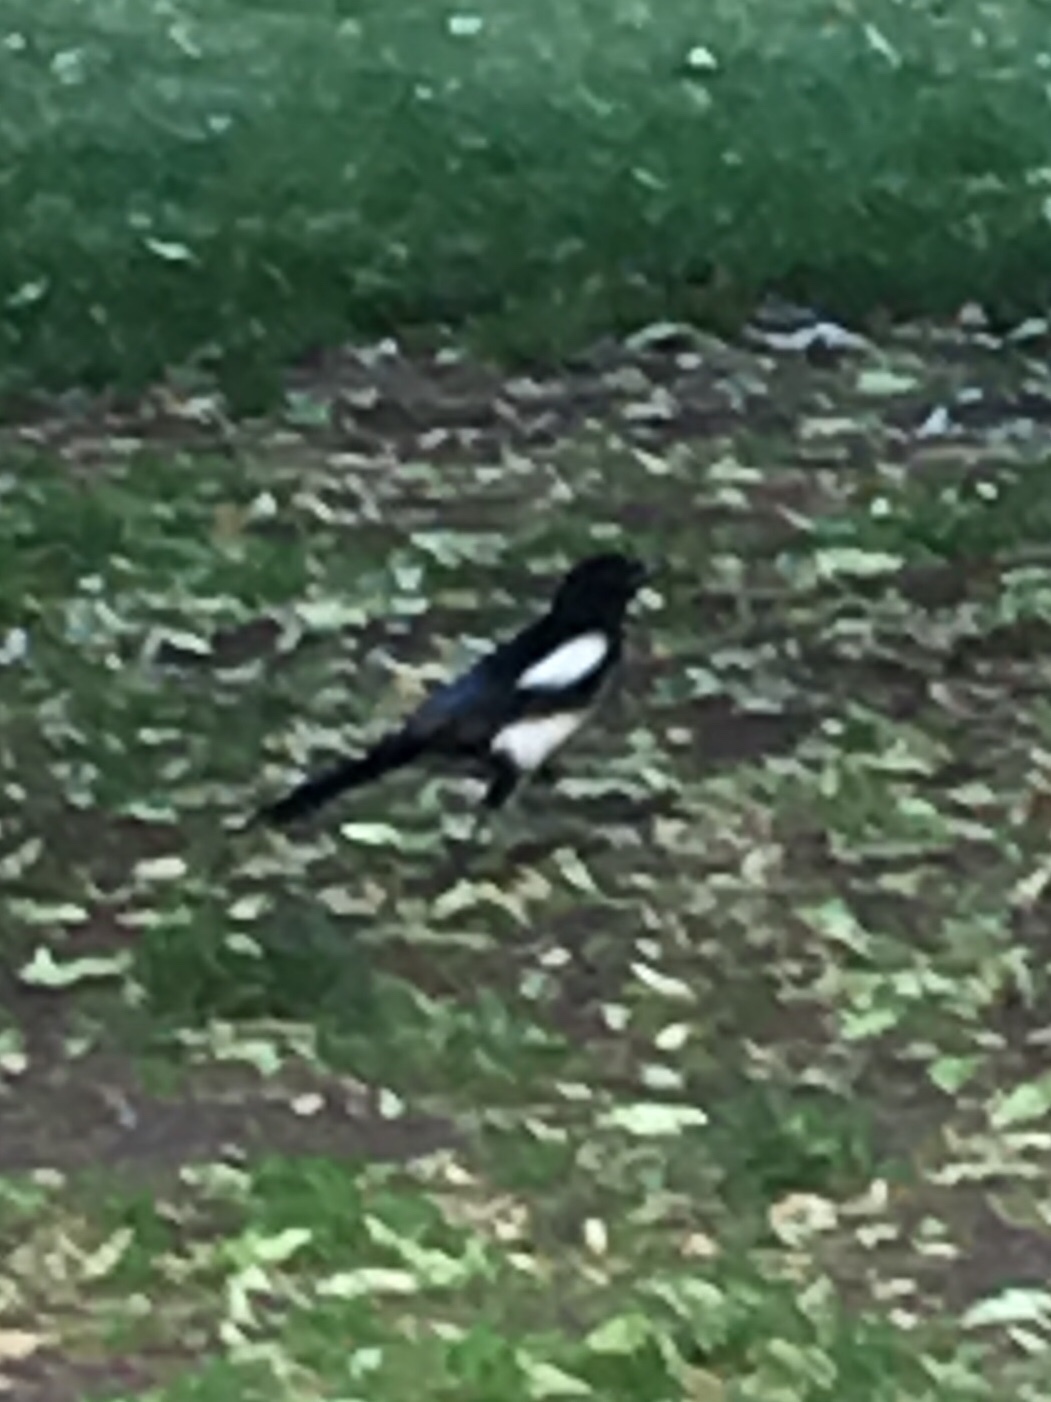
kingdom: Animalia
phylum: Chordata
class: Aves
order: Passeriformes
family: Corvidae
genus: Pica
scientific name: Pica pica
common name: Eurasian magpie
